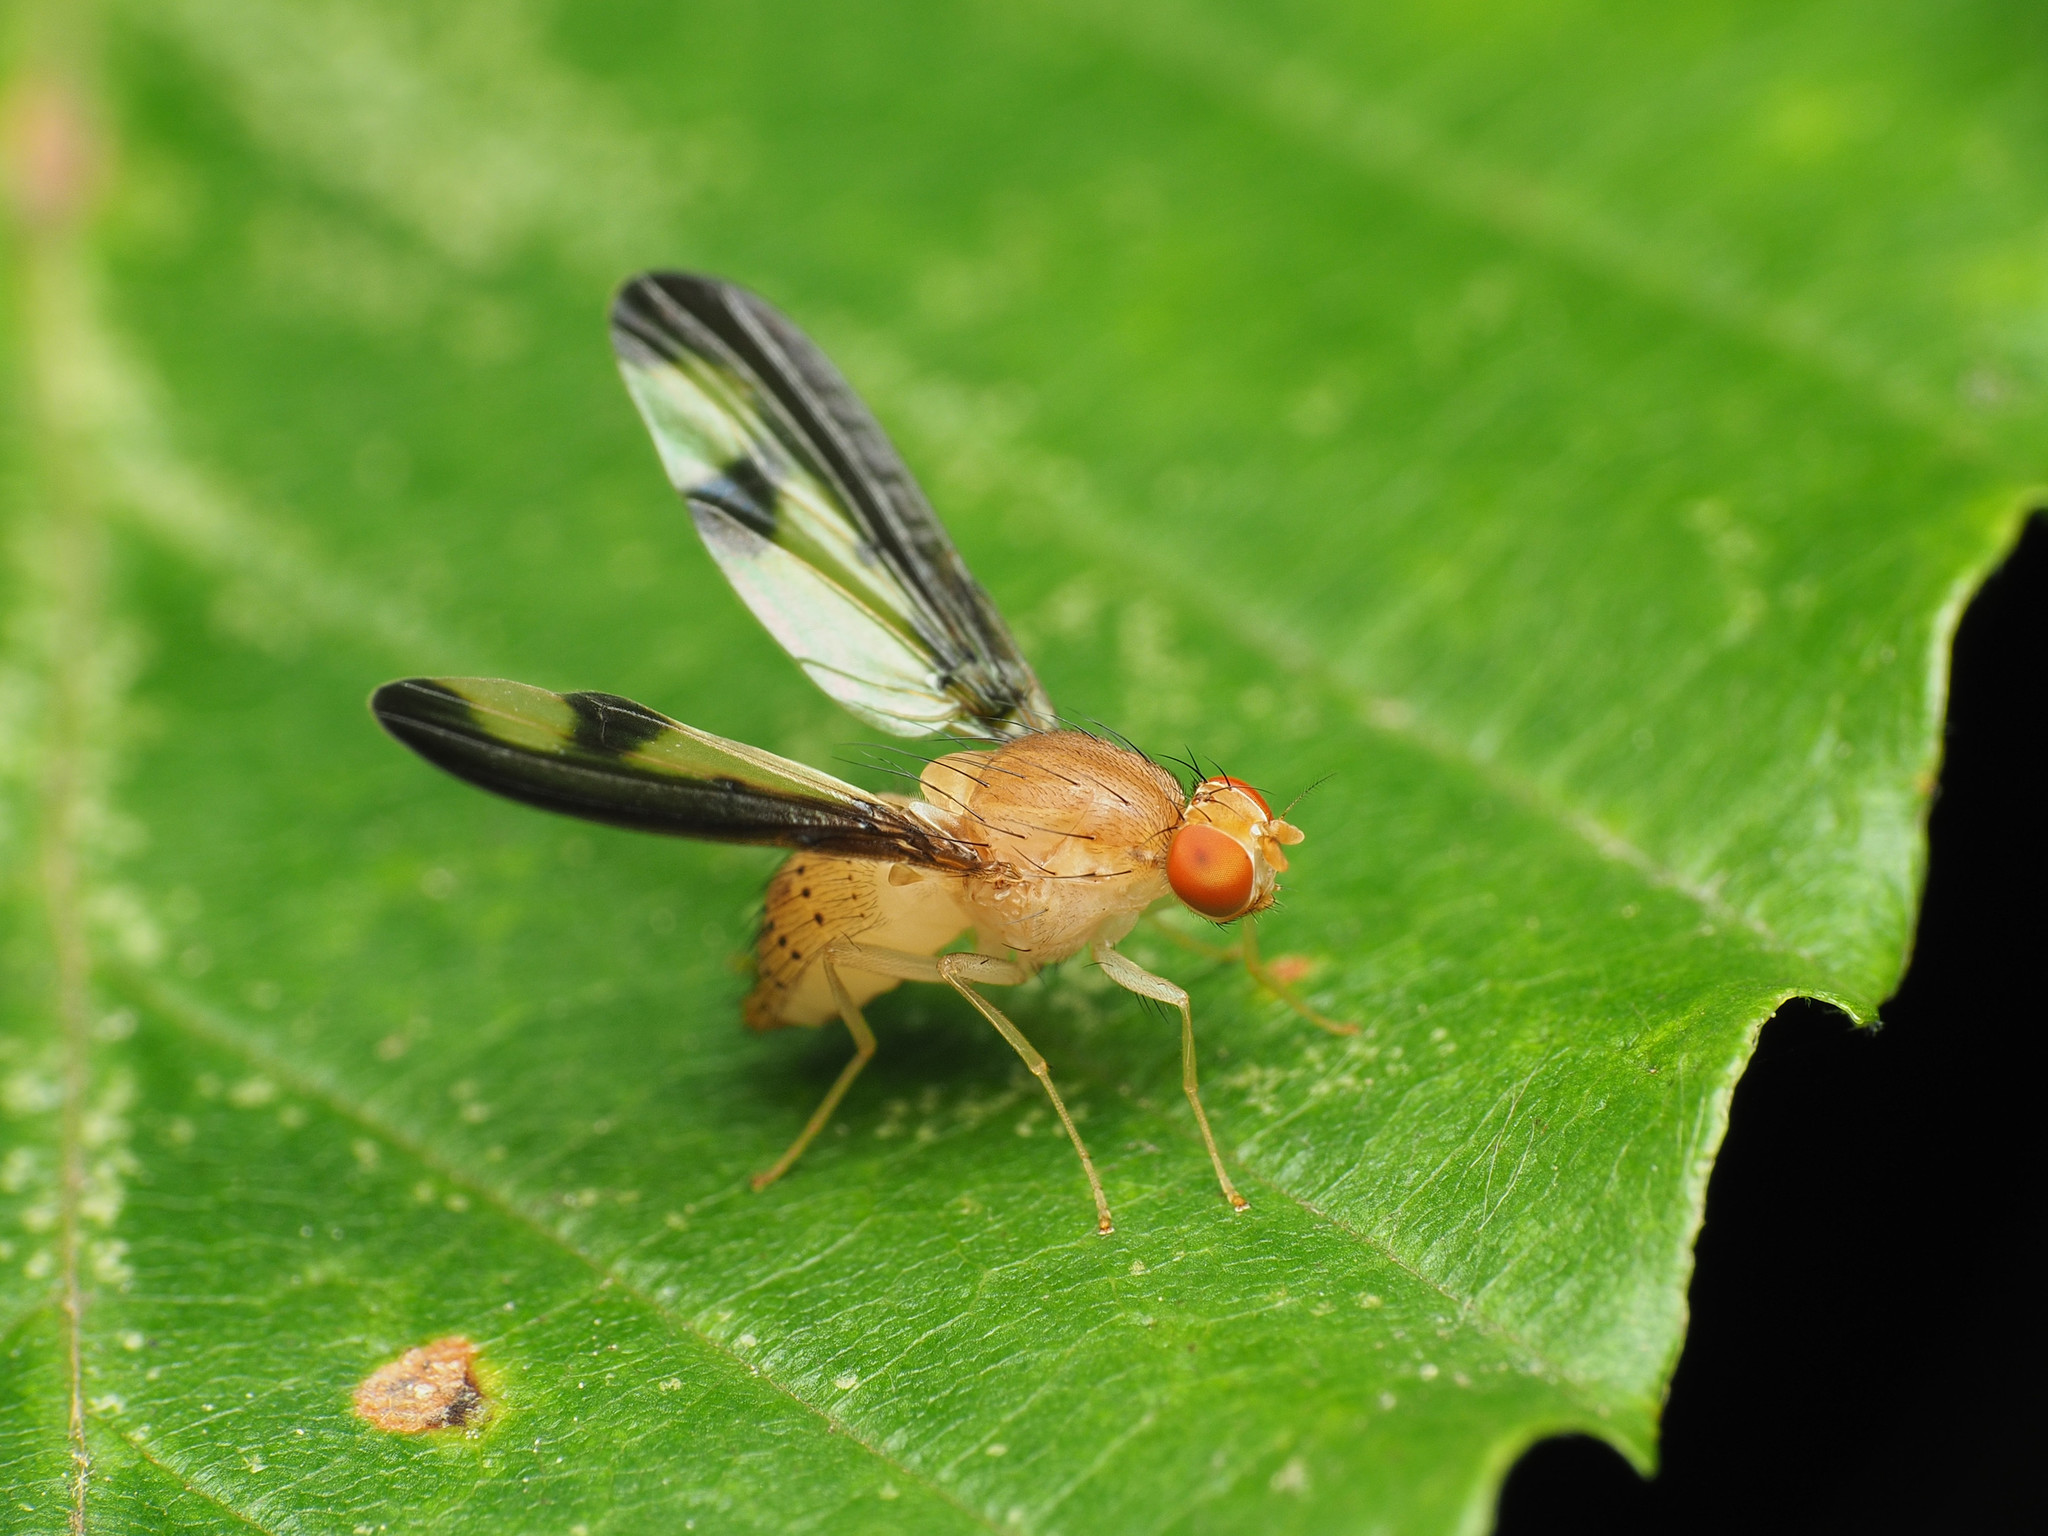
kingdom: Animalia
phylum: Arthropoda
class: Insecta
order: Diptera
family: Pallopteridae
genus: Toxonevra
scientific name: Toxonevra superba
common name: Antlered flutter fly
